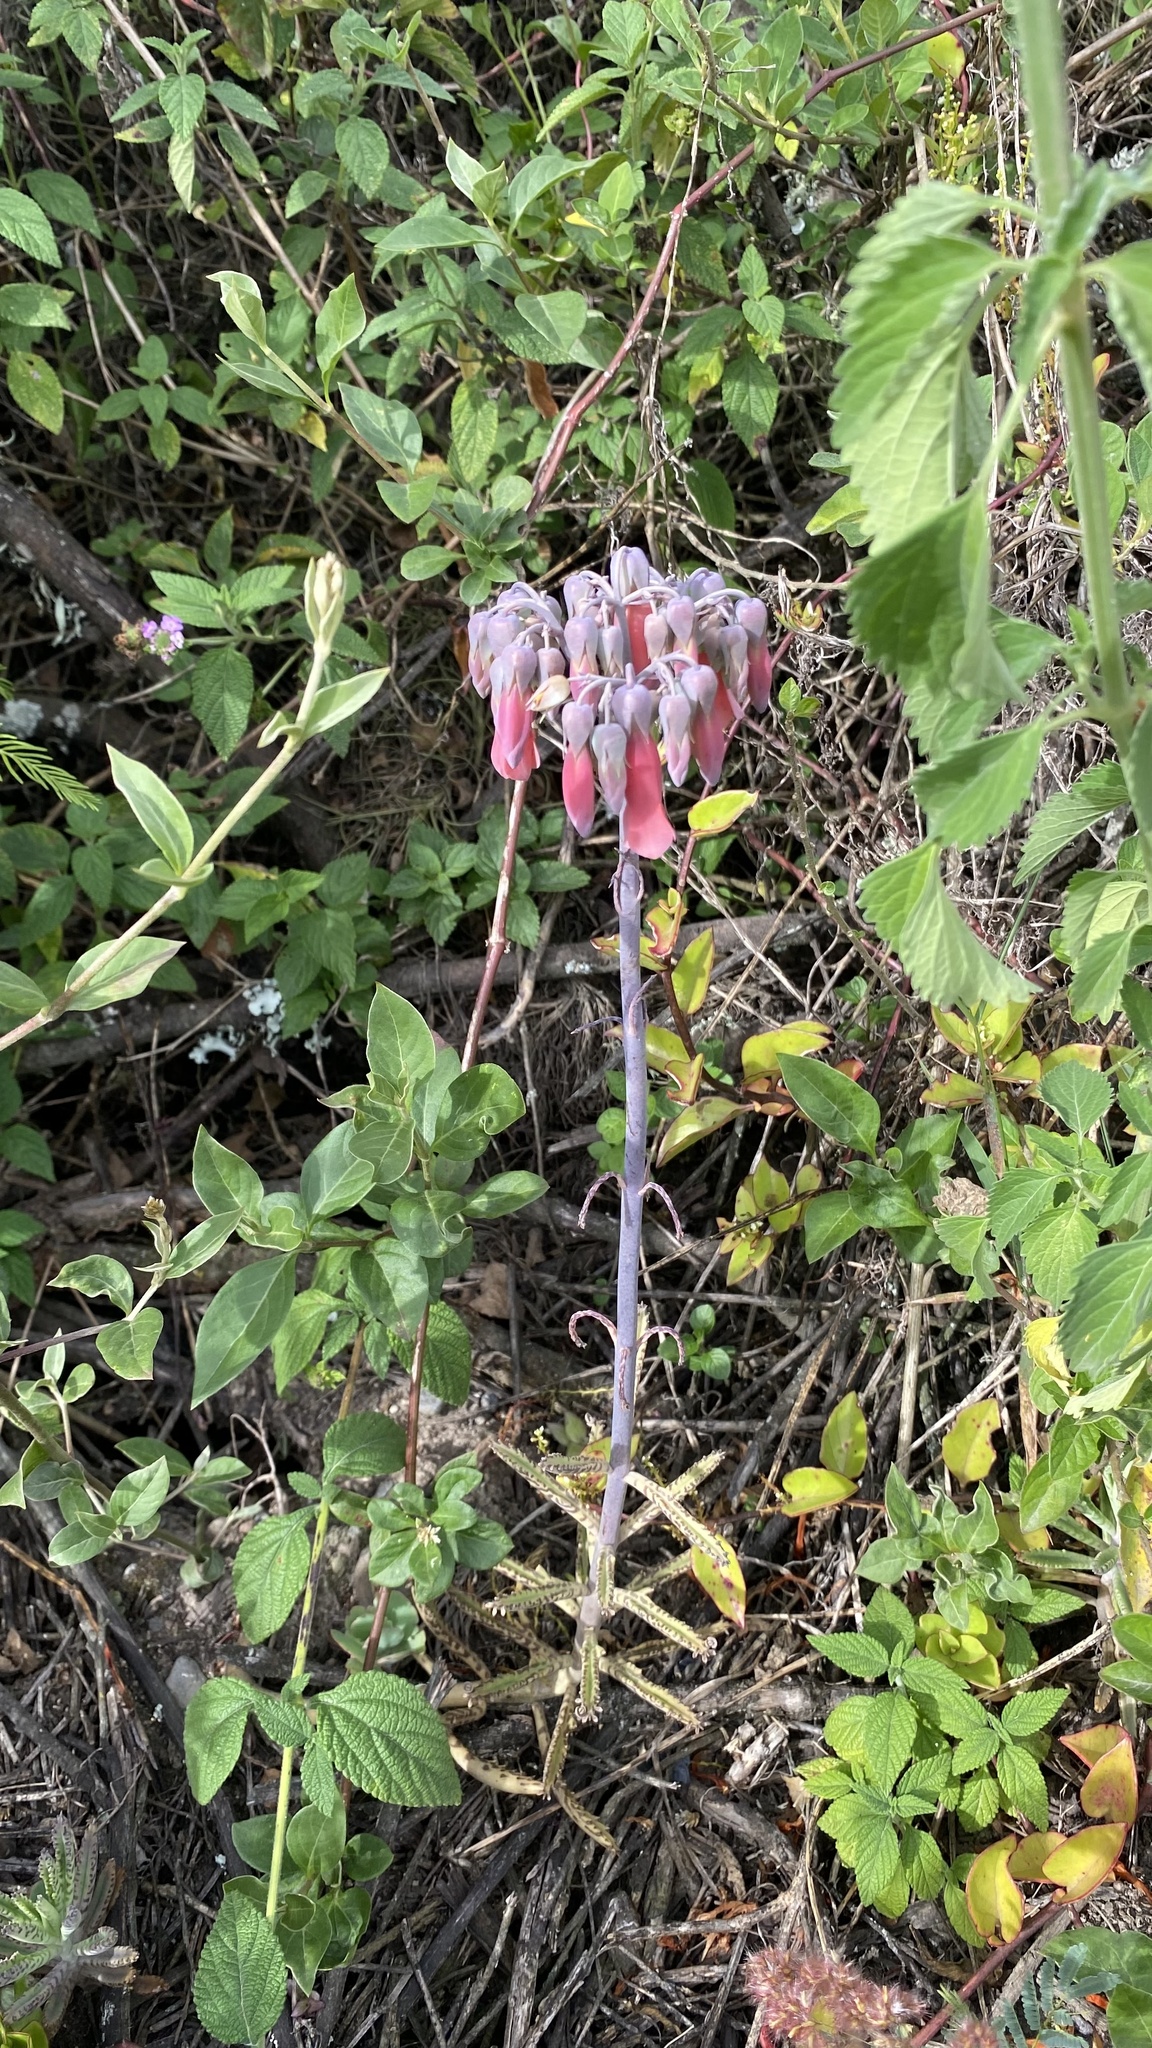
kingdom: Plantae
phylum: Tracheophyta
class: Magnoliopsida
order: Saxifragales
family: Crassulaceae
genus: Kalanchoe
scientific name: Kalanchoe houghtonii
